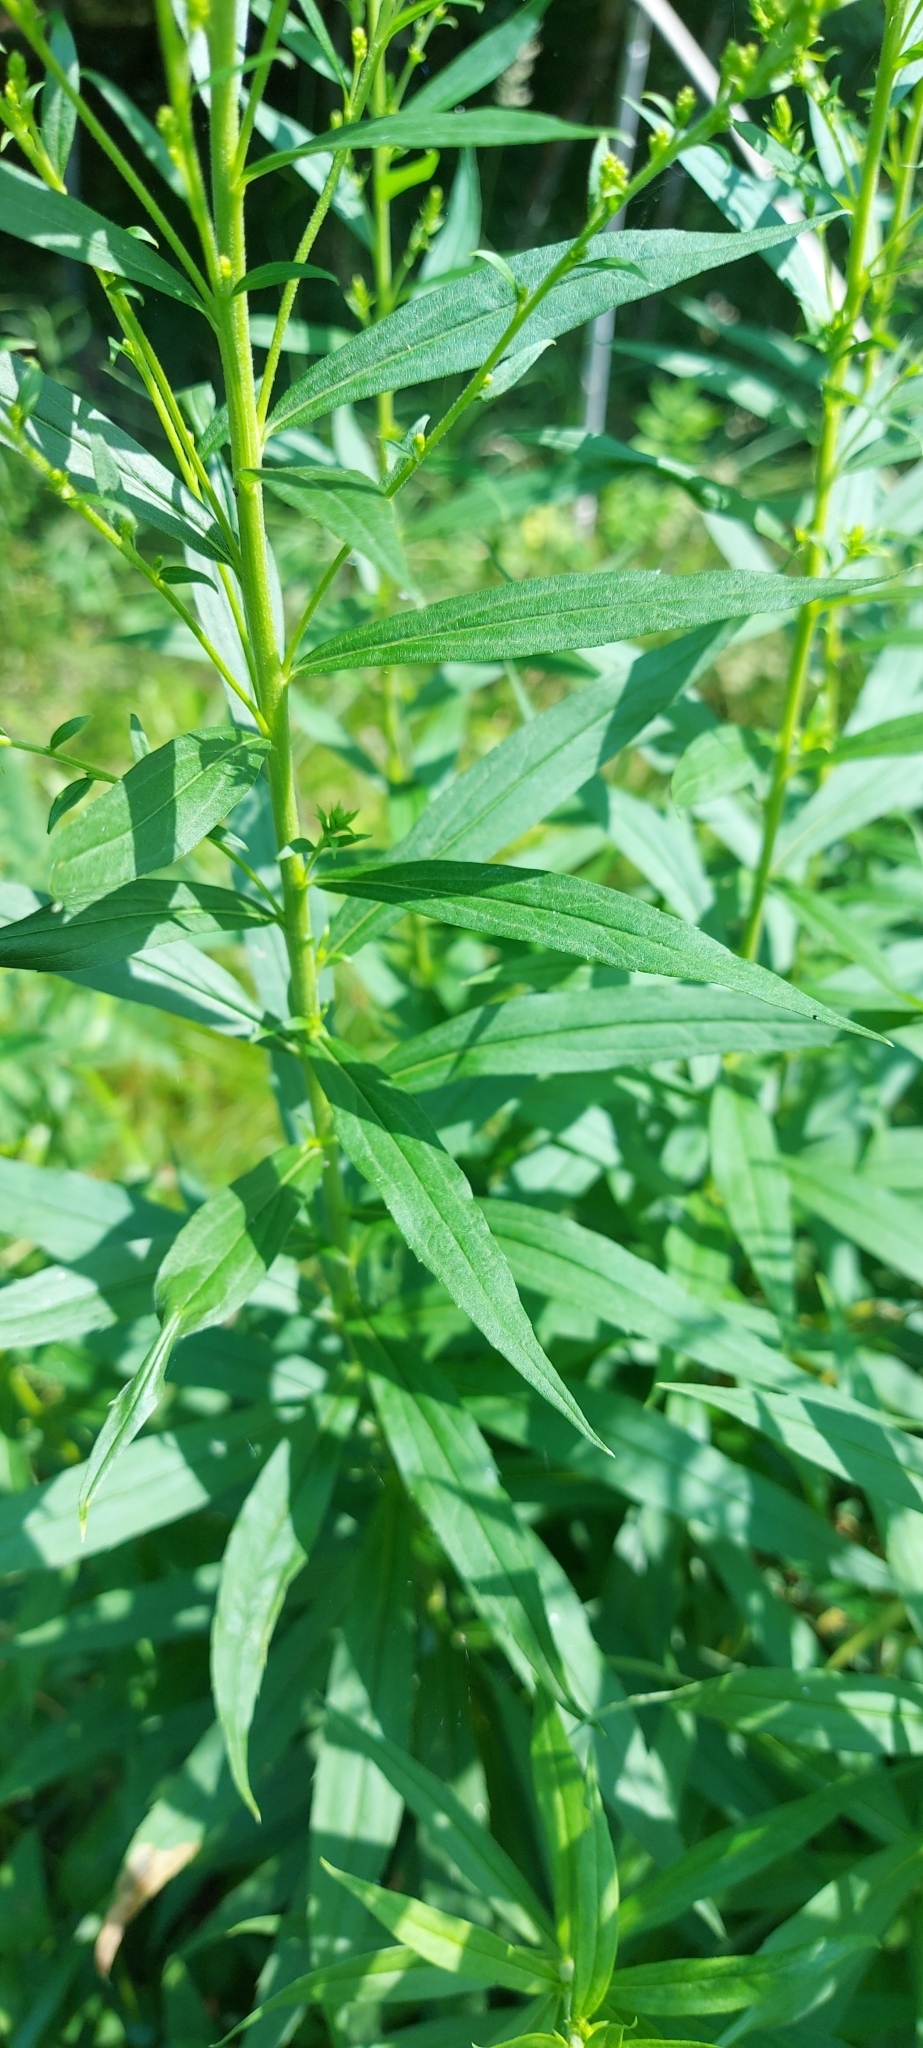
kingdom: Plantae
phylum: Tracheophyta
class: Magnoliopsida
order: Asterales
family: Asteraceae
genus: Solidago
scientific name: Solidago canadensis
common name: Canada goldenrod
